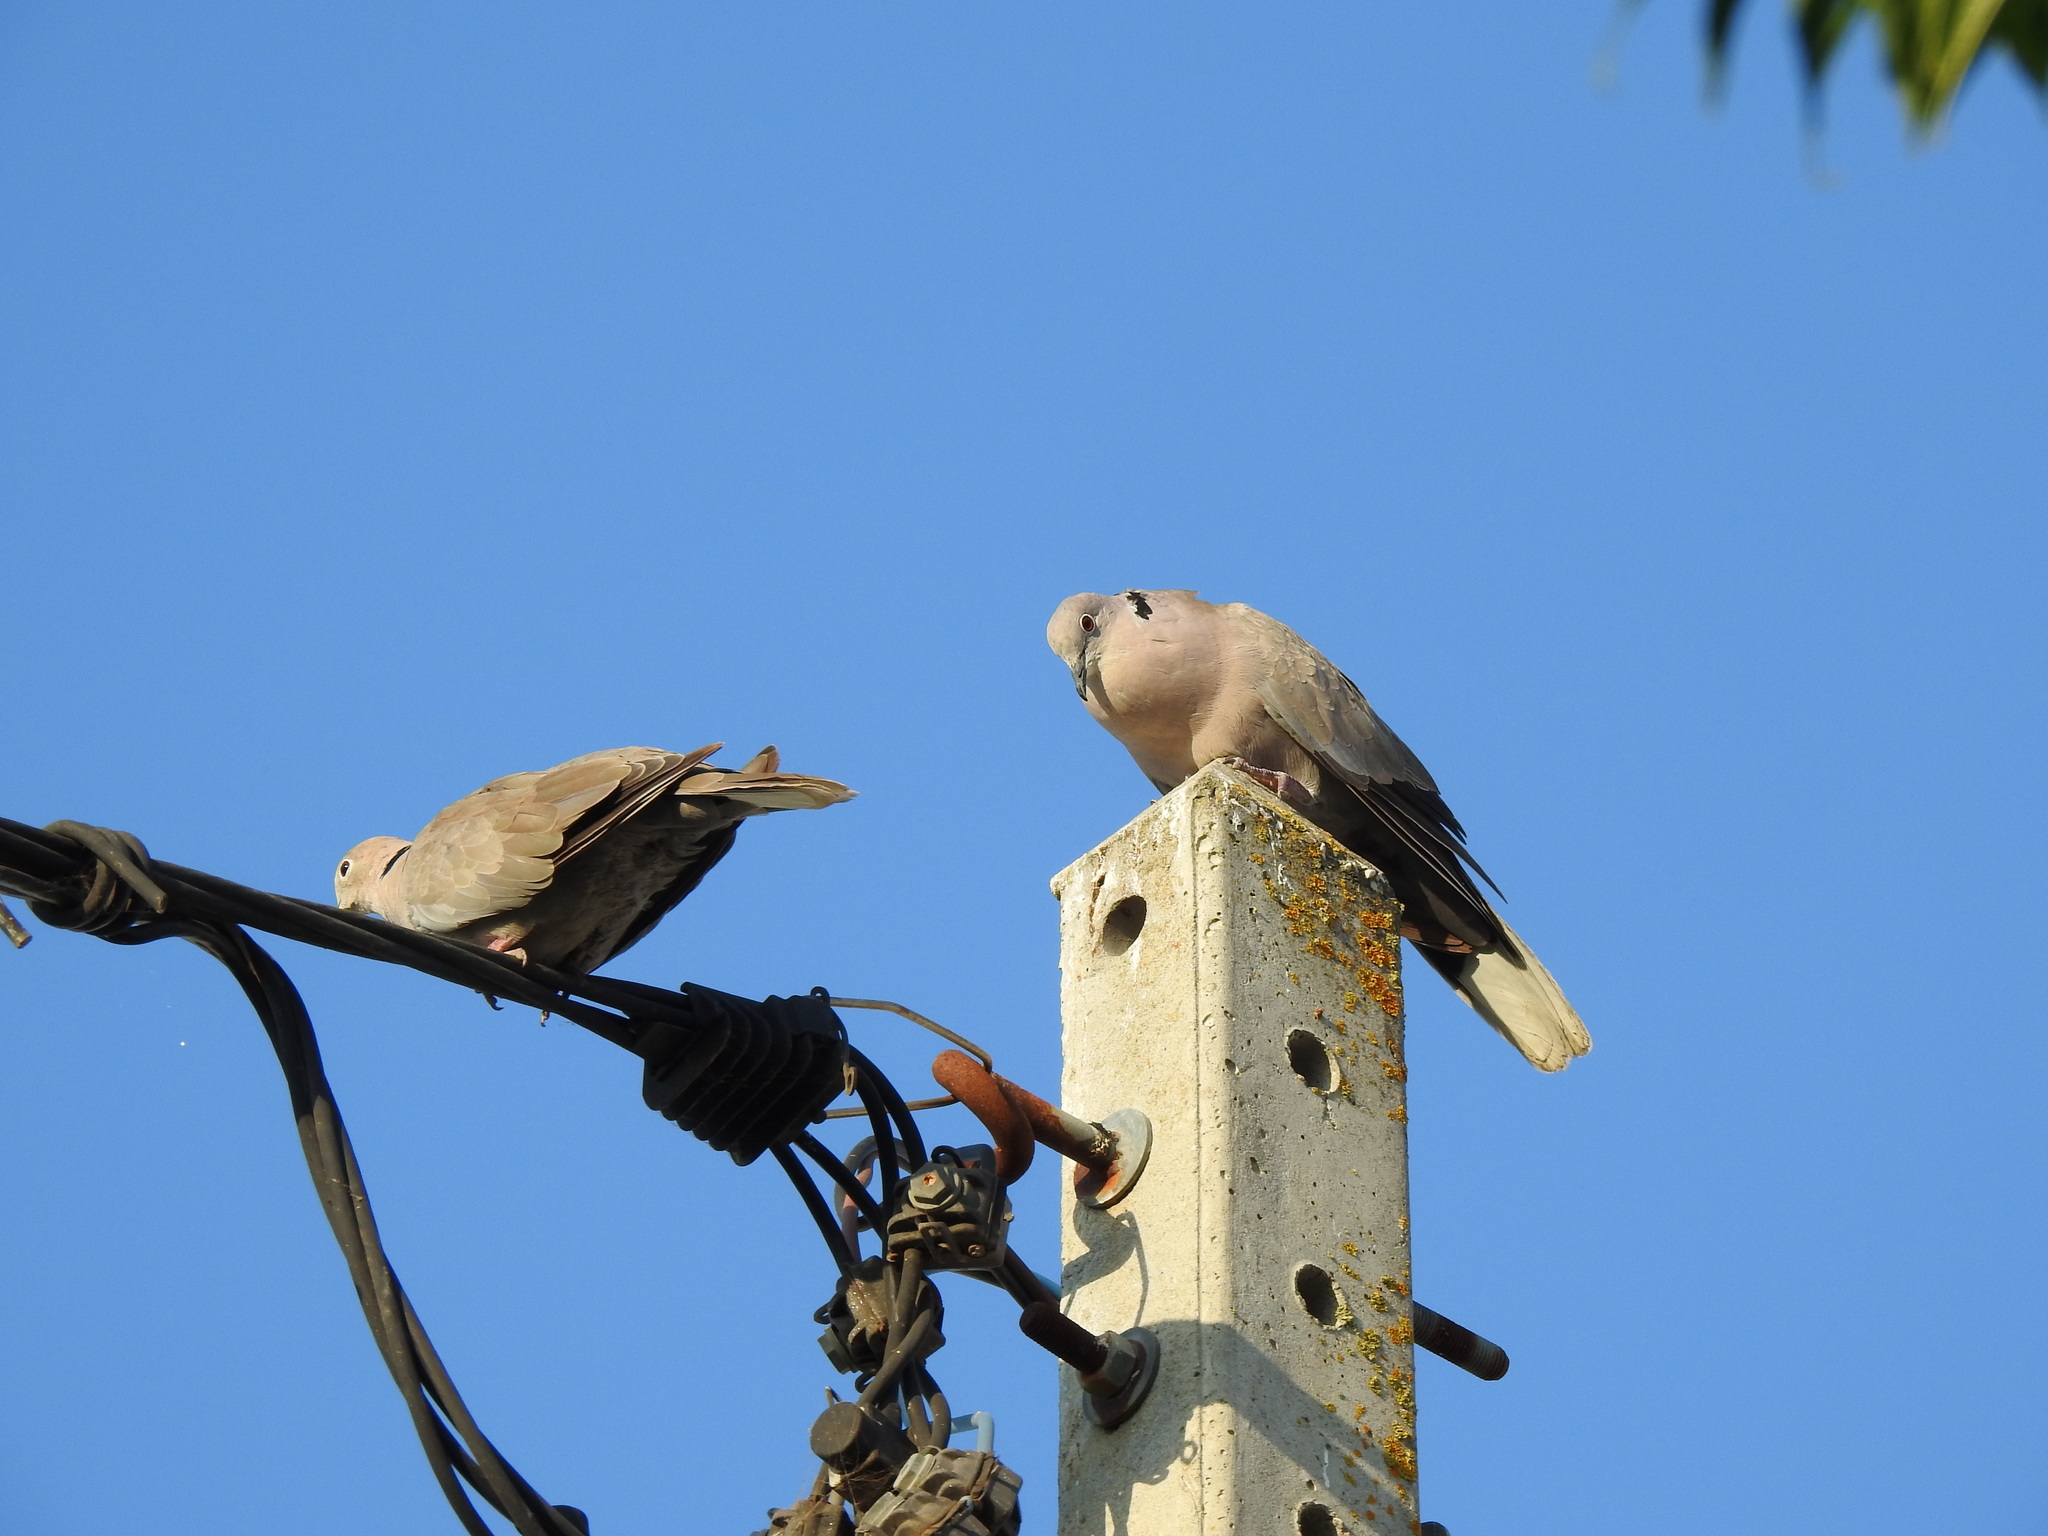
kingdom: Animalia
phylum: Chordata
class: Aves
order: Columbiformes
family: Columbidae
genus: Streptopelia
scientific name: Streptopelia decaocto
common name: Eurasian collared dove
